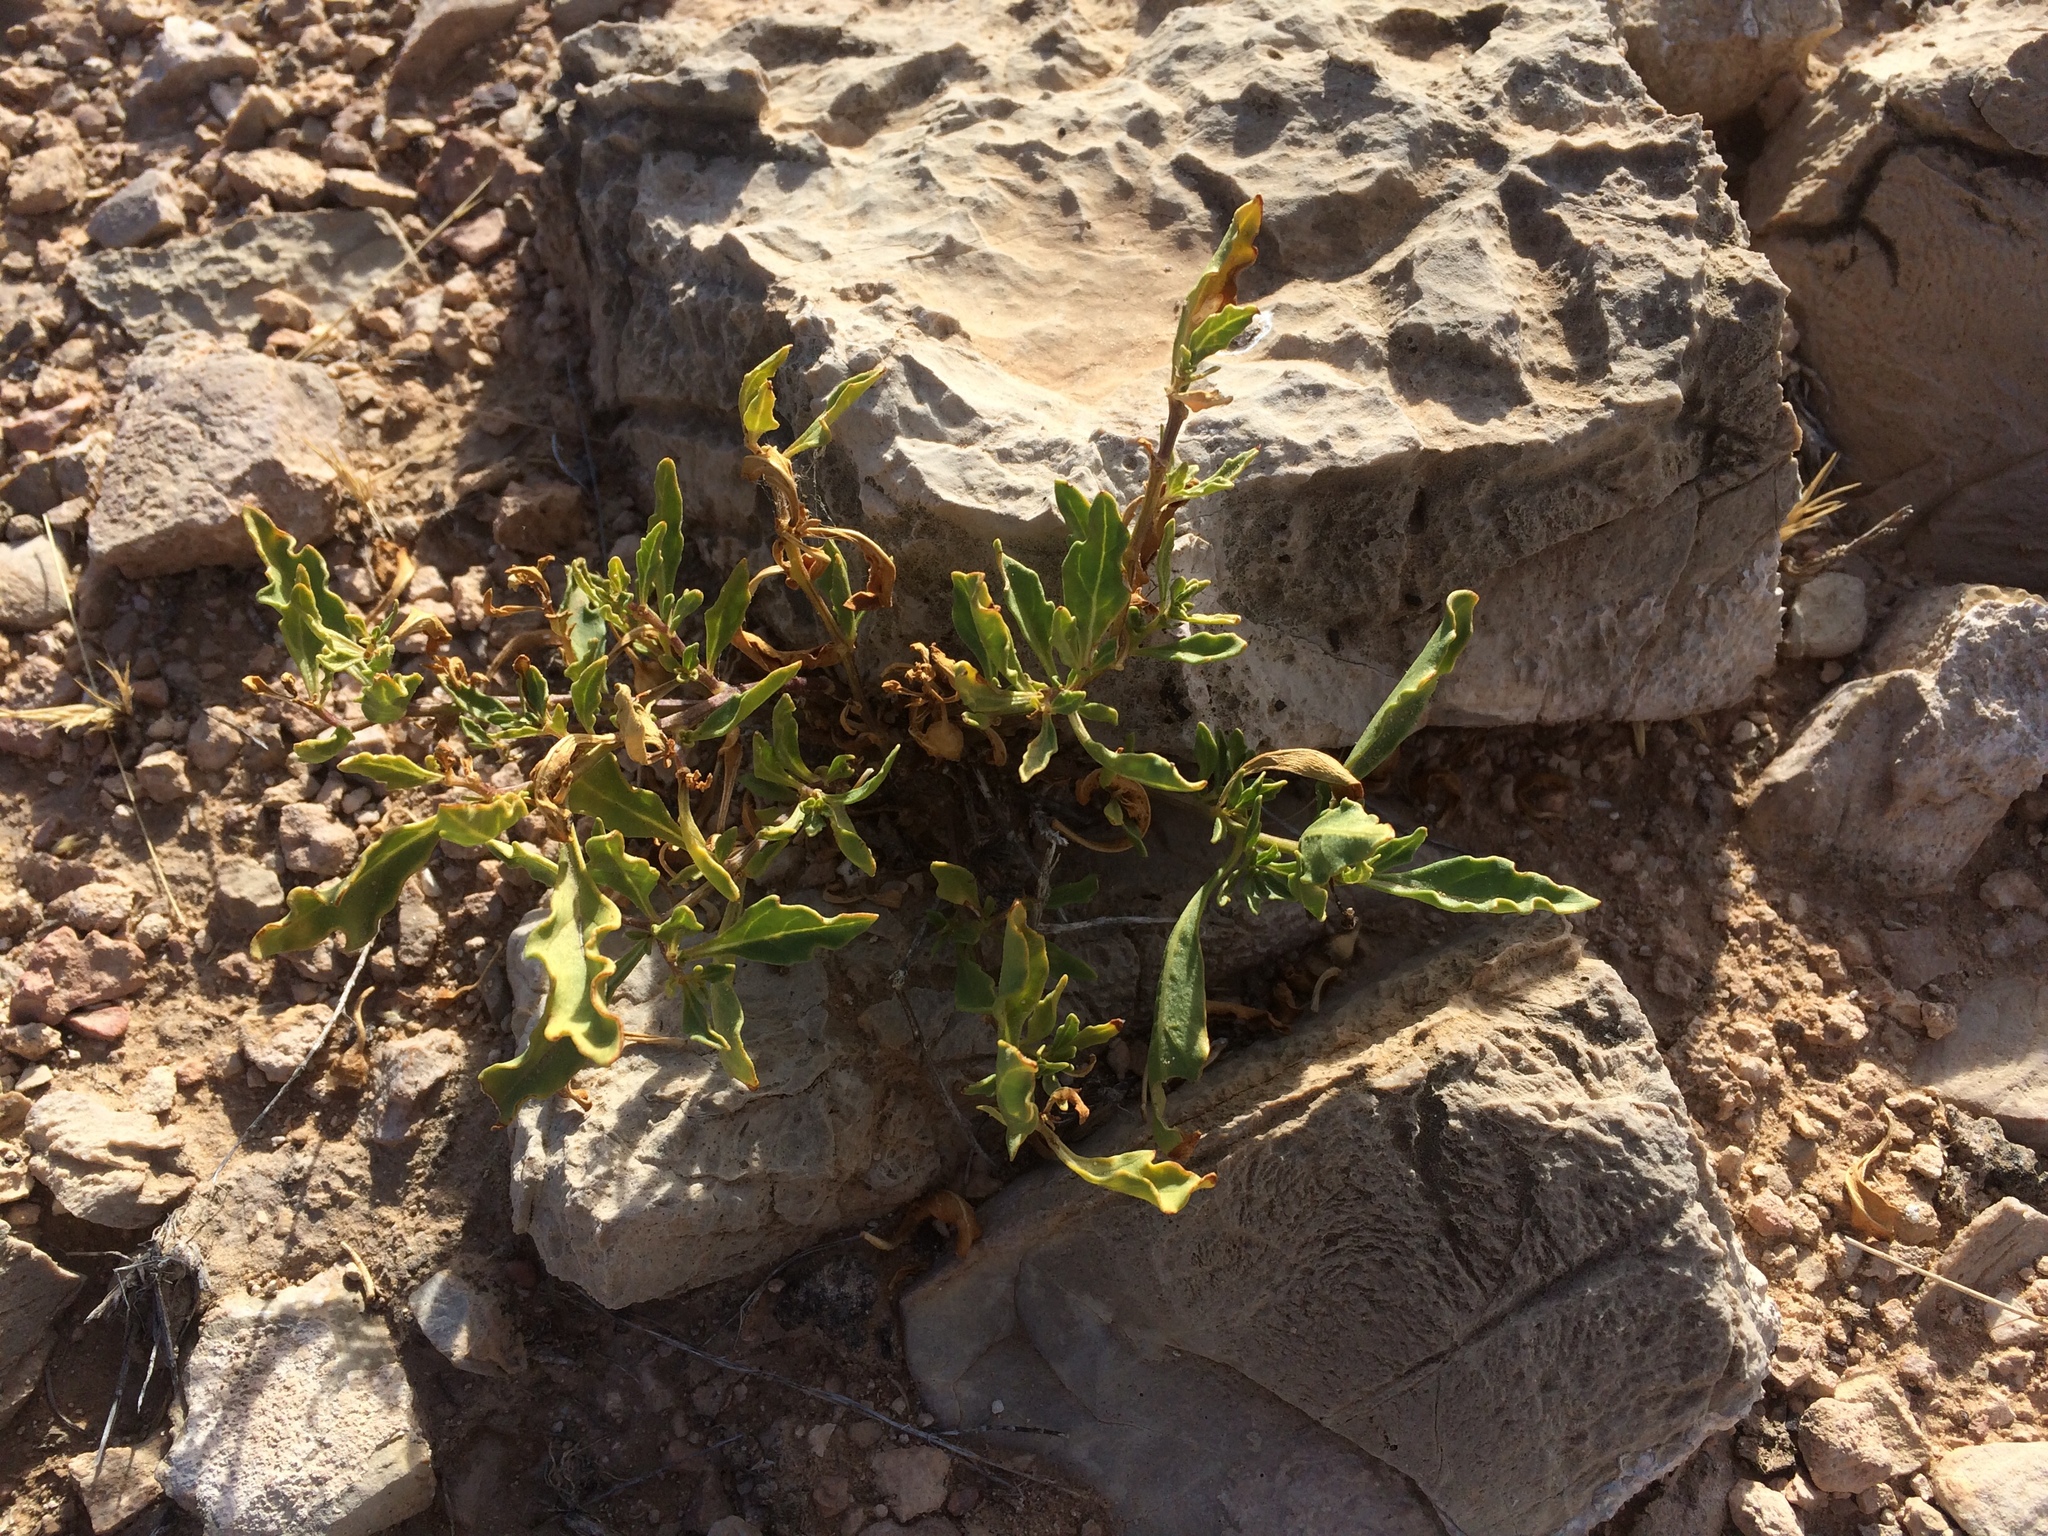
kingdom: Plantae
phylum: Tracheophyta
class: Magnoliopsida
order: Solanales
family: Solanaceae
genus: Chamaesaracha
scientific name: Chamaesaracha pallida
